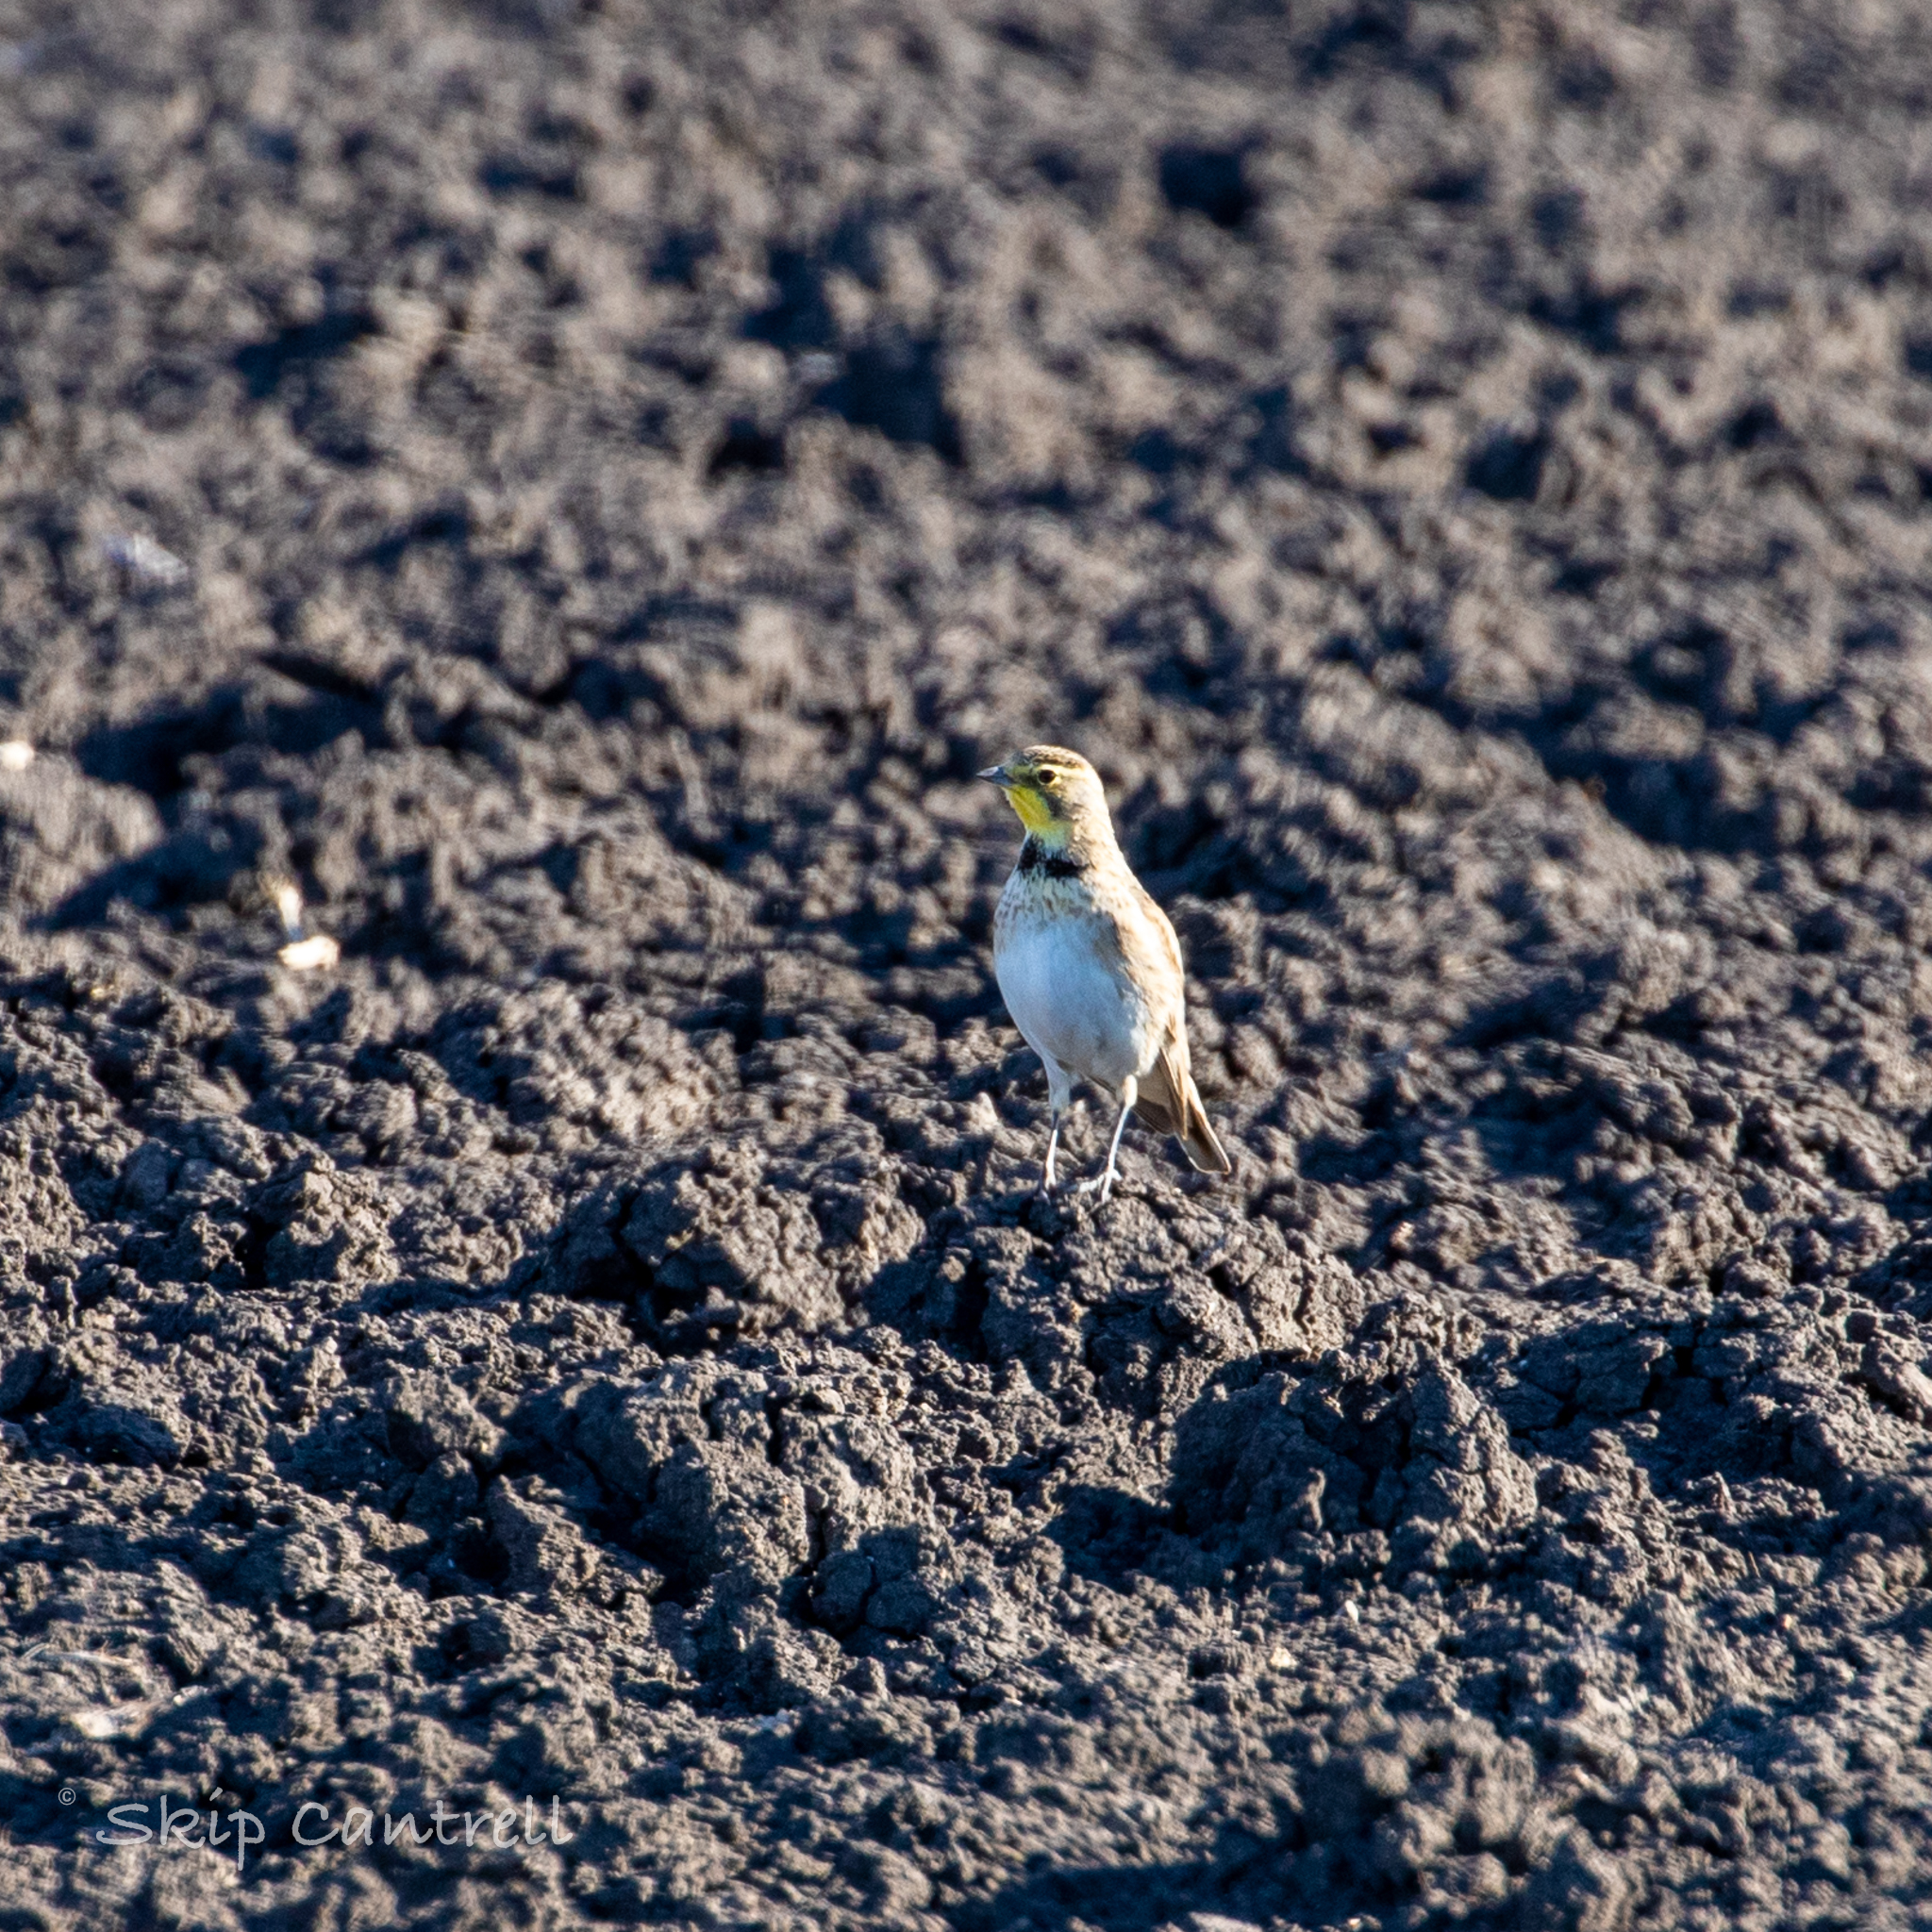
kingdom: Animalia
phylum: Chordata
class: Aves
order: Passeriformes
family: Alaudidae
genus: Eremophila
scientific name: Eremophila alpestris
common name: Horned lark
